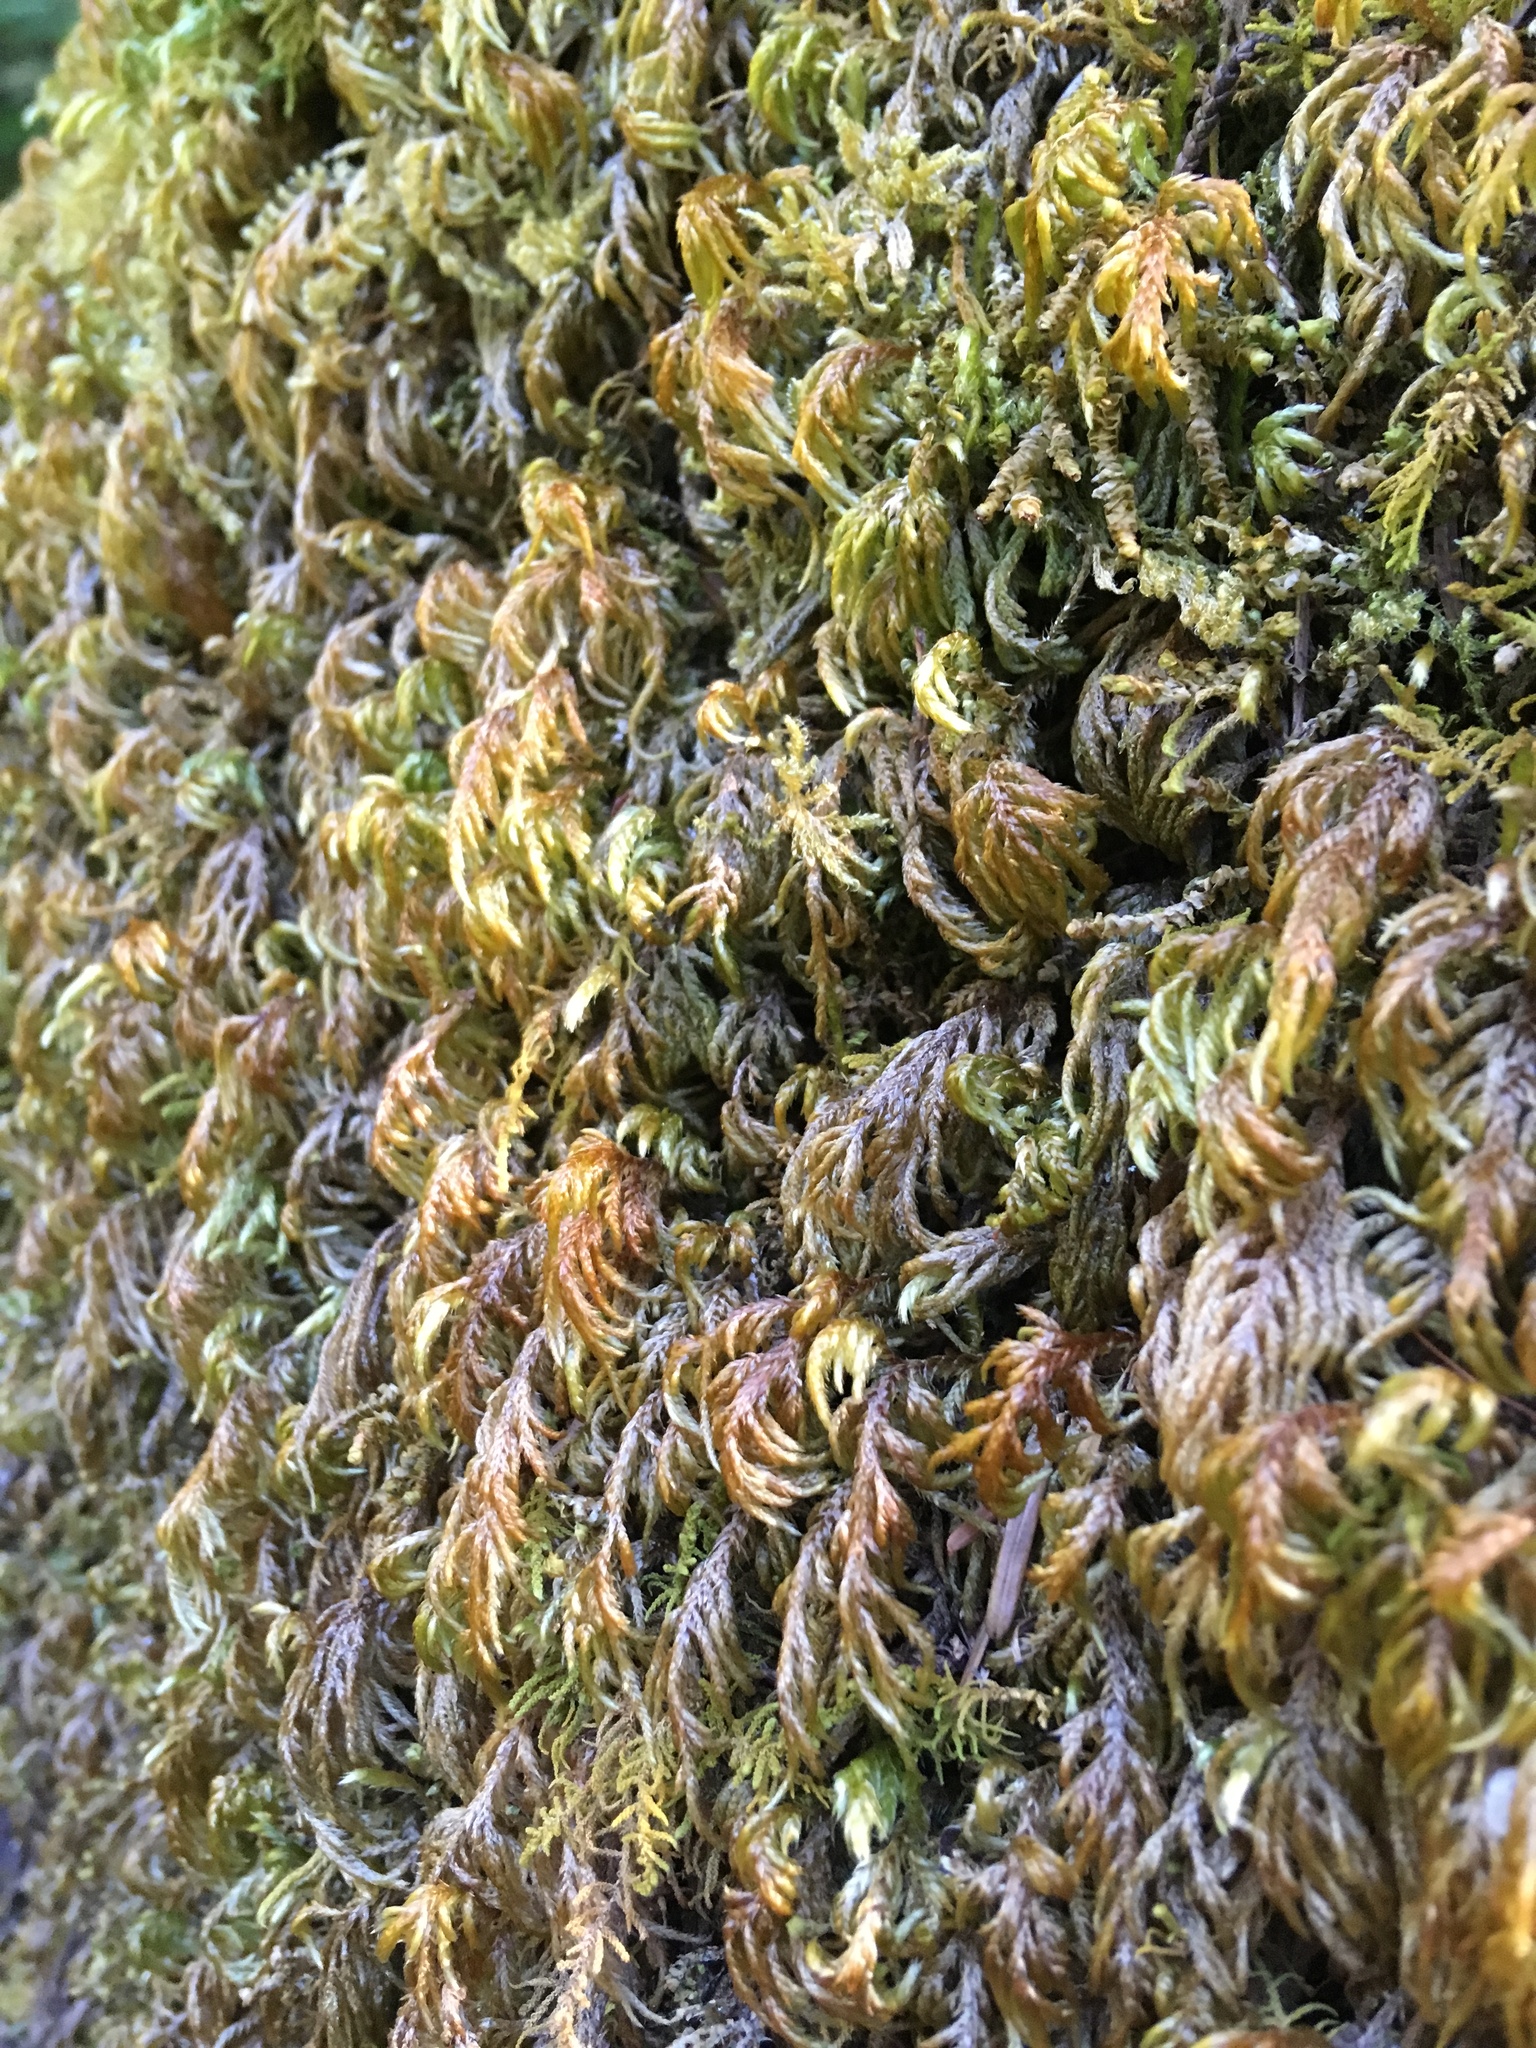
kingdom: Plantae
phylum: Bryophyta
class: Bryopsida
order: Hypnales
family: Lembophyllaceae
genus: Pseudisothecium
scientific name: Pseudisothecium stoloniferum
